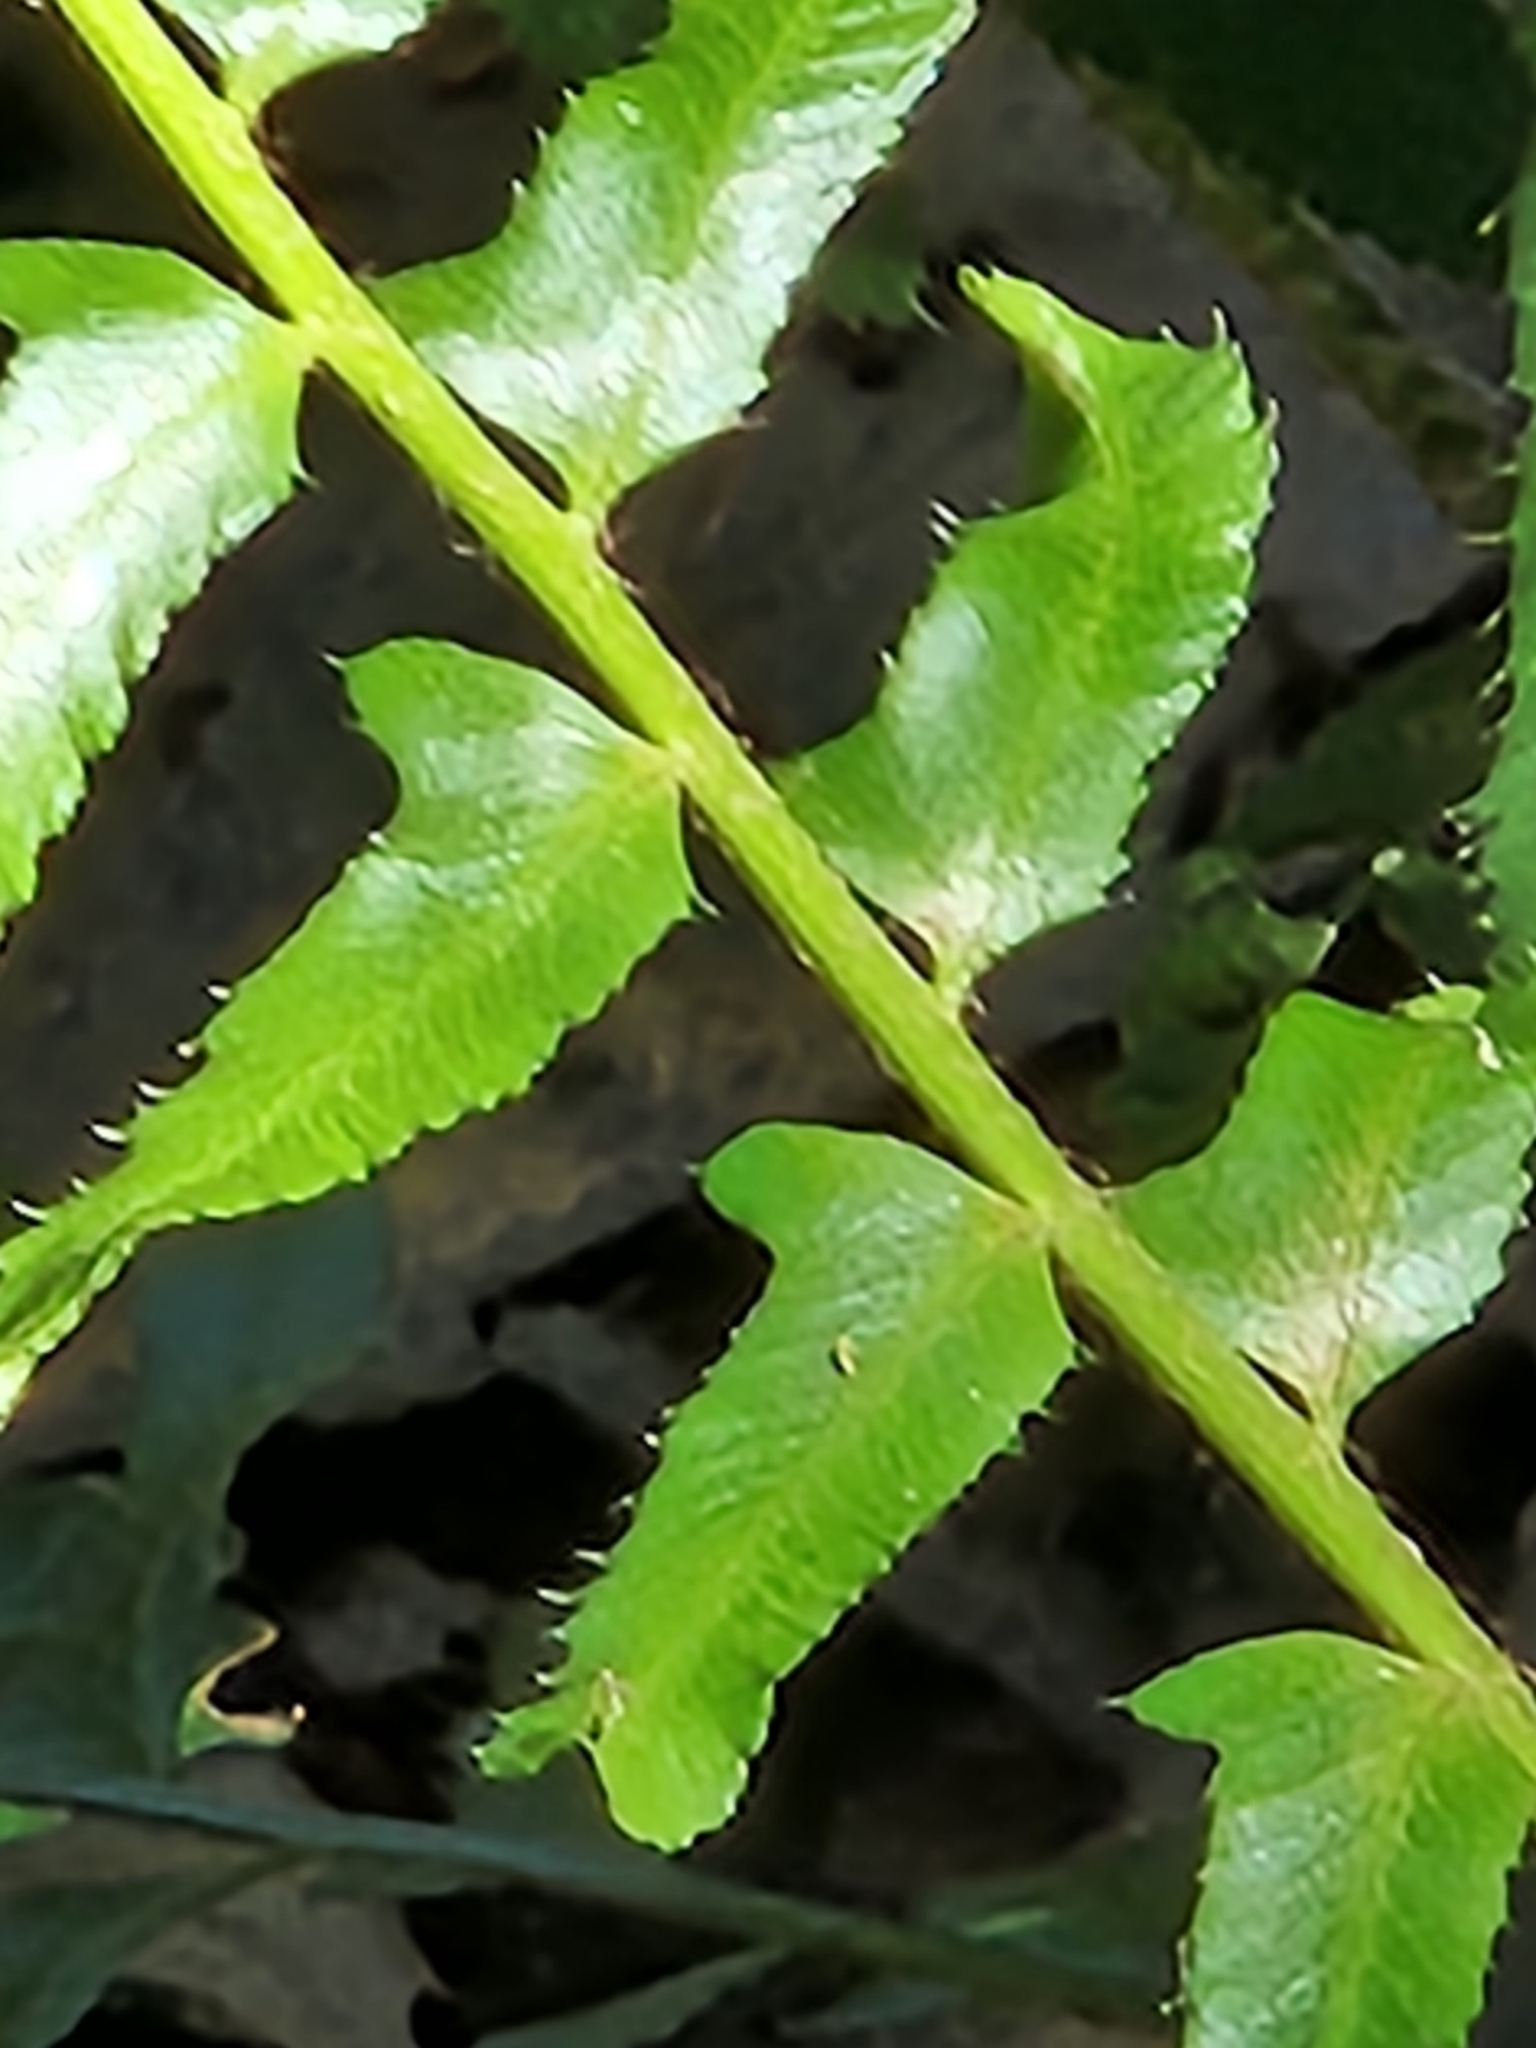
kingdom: Plantae
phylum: Tracheophyta
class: Polypodiopsida
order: Polypodiales
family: Dryopteridaceae
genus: Polystichum
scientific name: Polystichum acrostichoides
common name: Christmas fern
